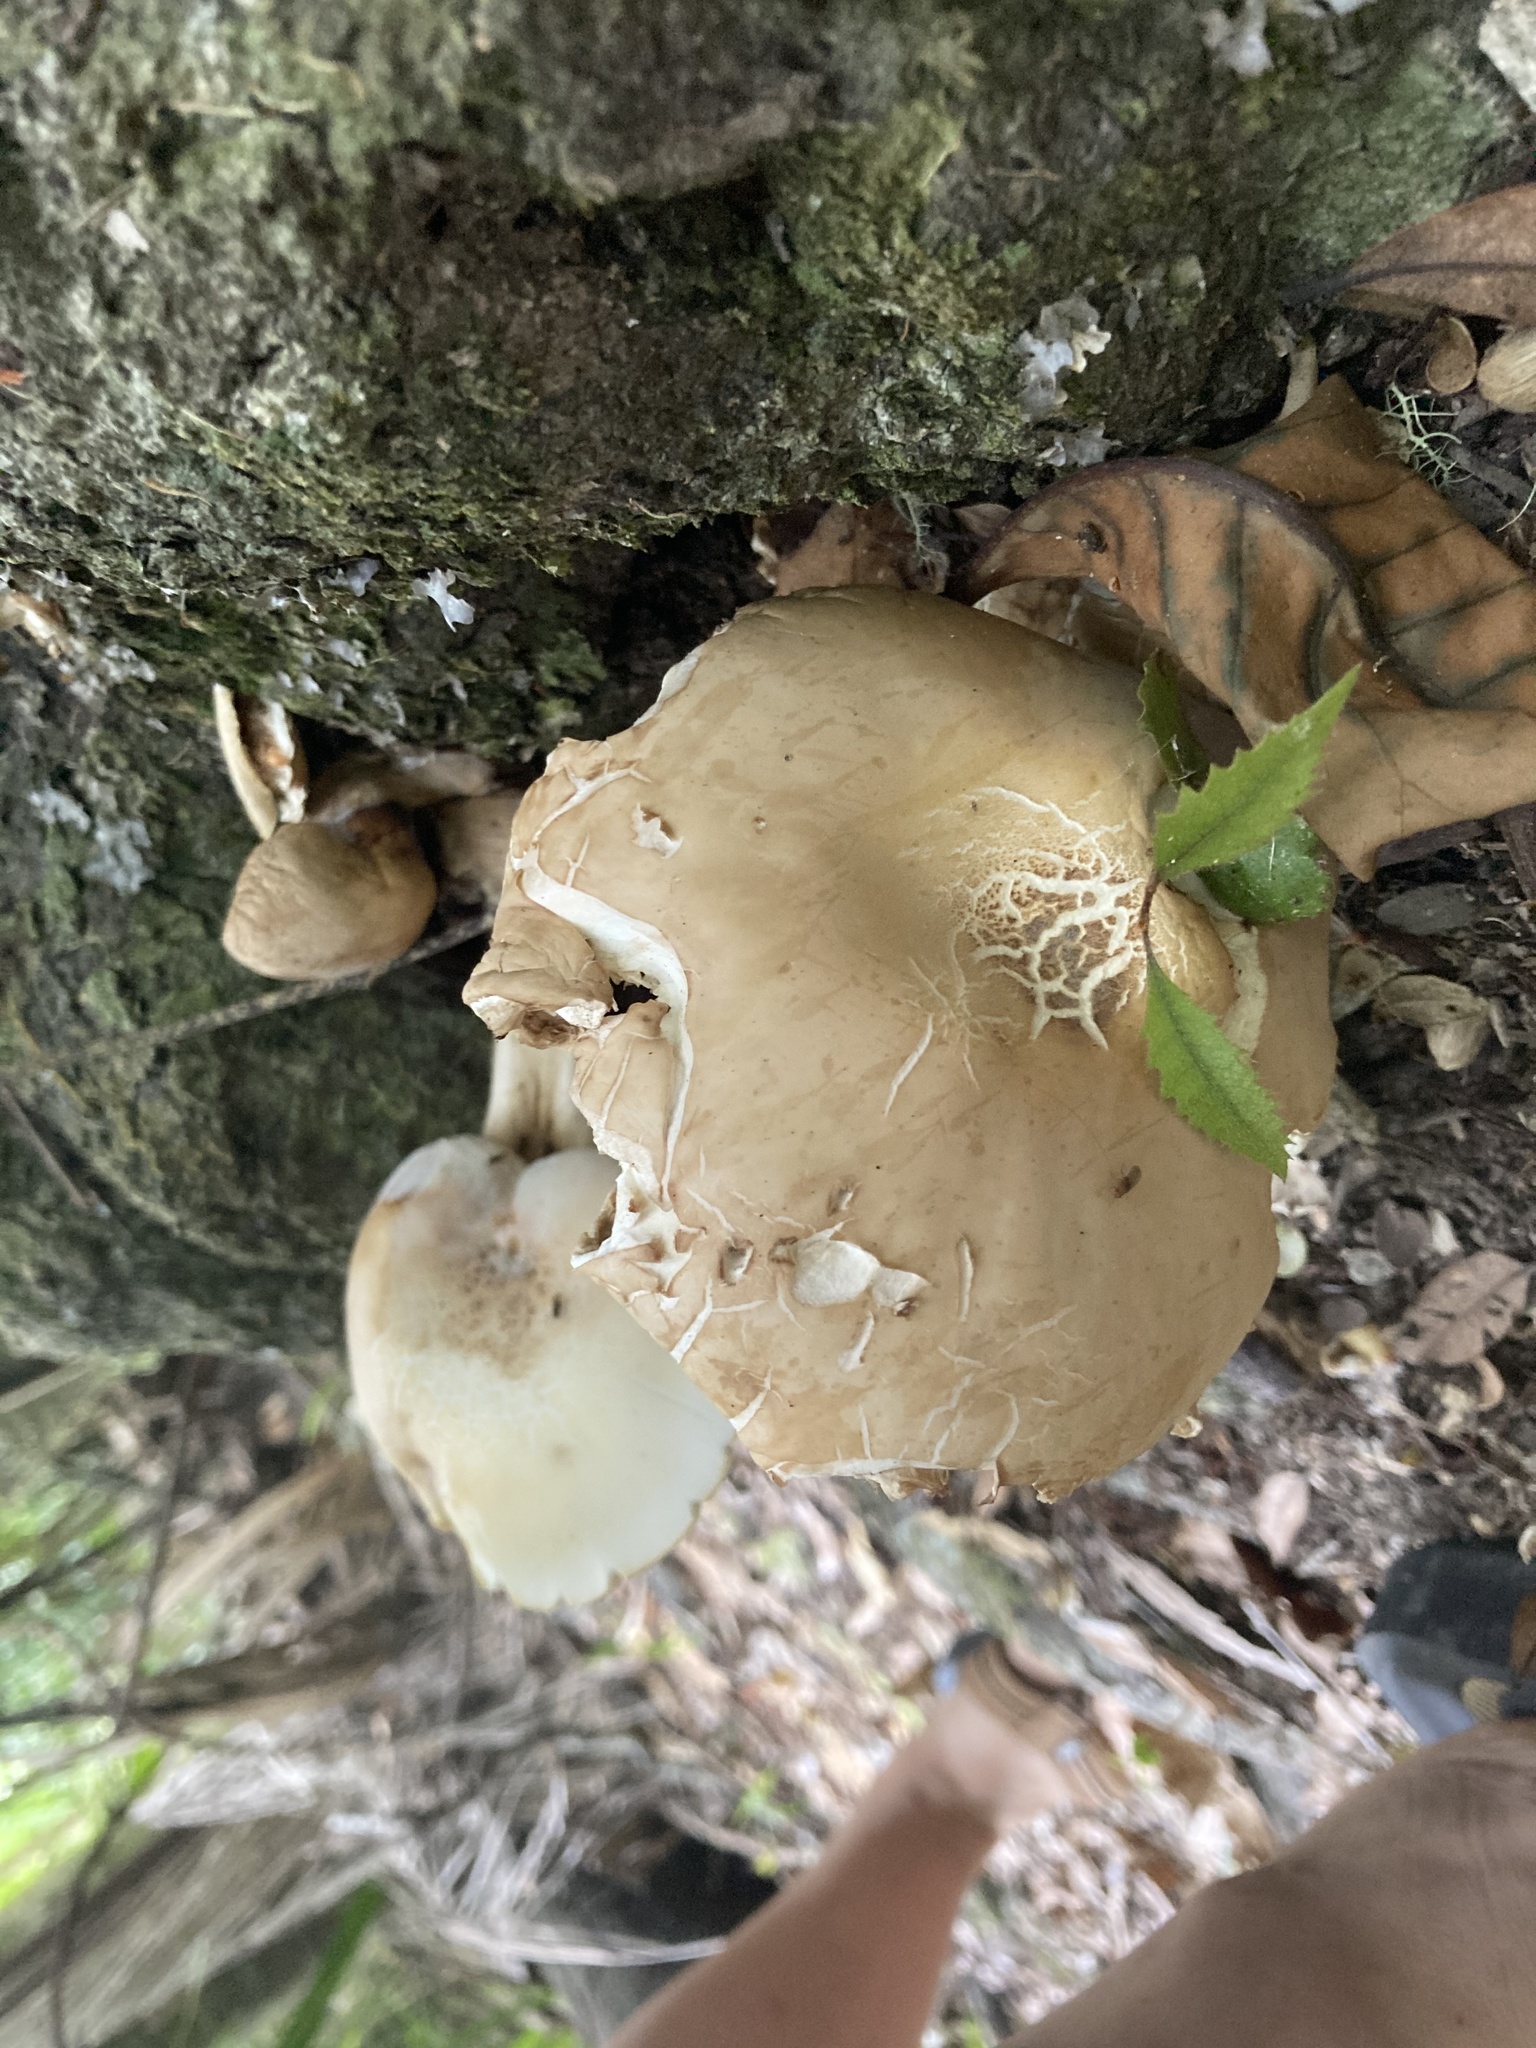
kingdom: Fungi
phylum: Basidiomycota
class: Agaricomycetes
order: Agaricales
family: Tubariaceae
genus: Cyclocybe
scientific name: Cyclocybe parasitica
